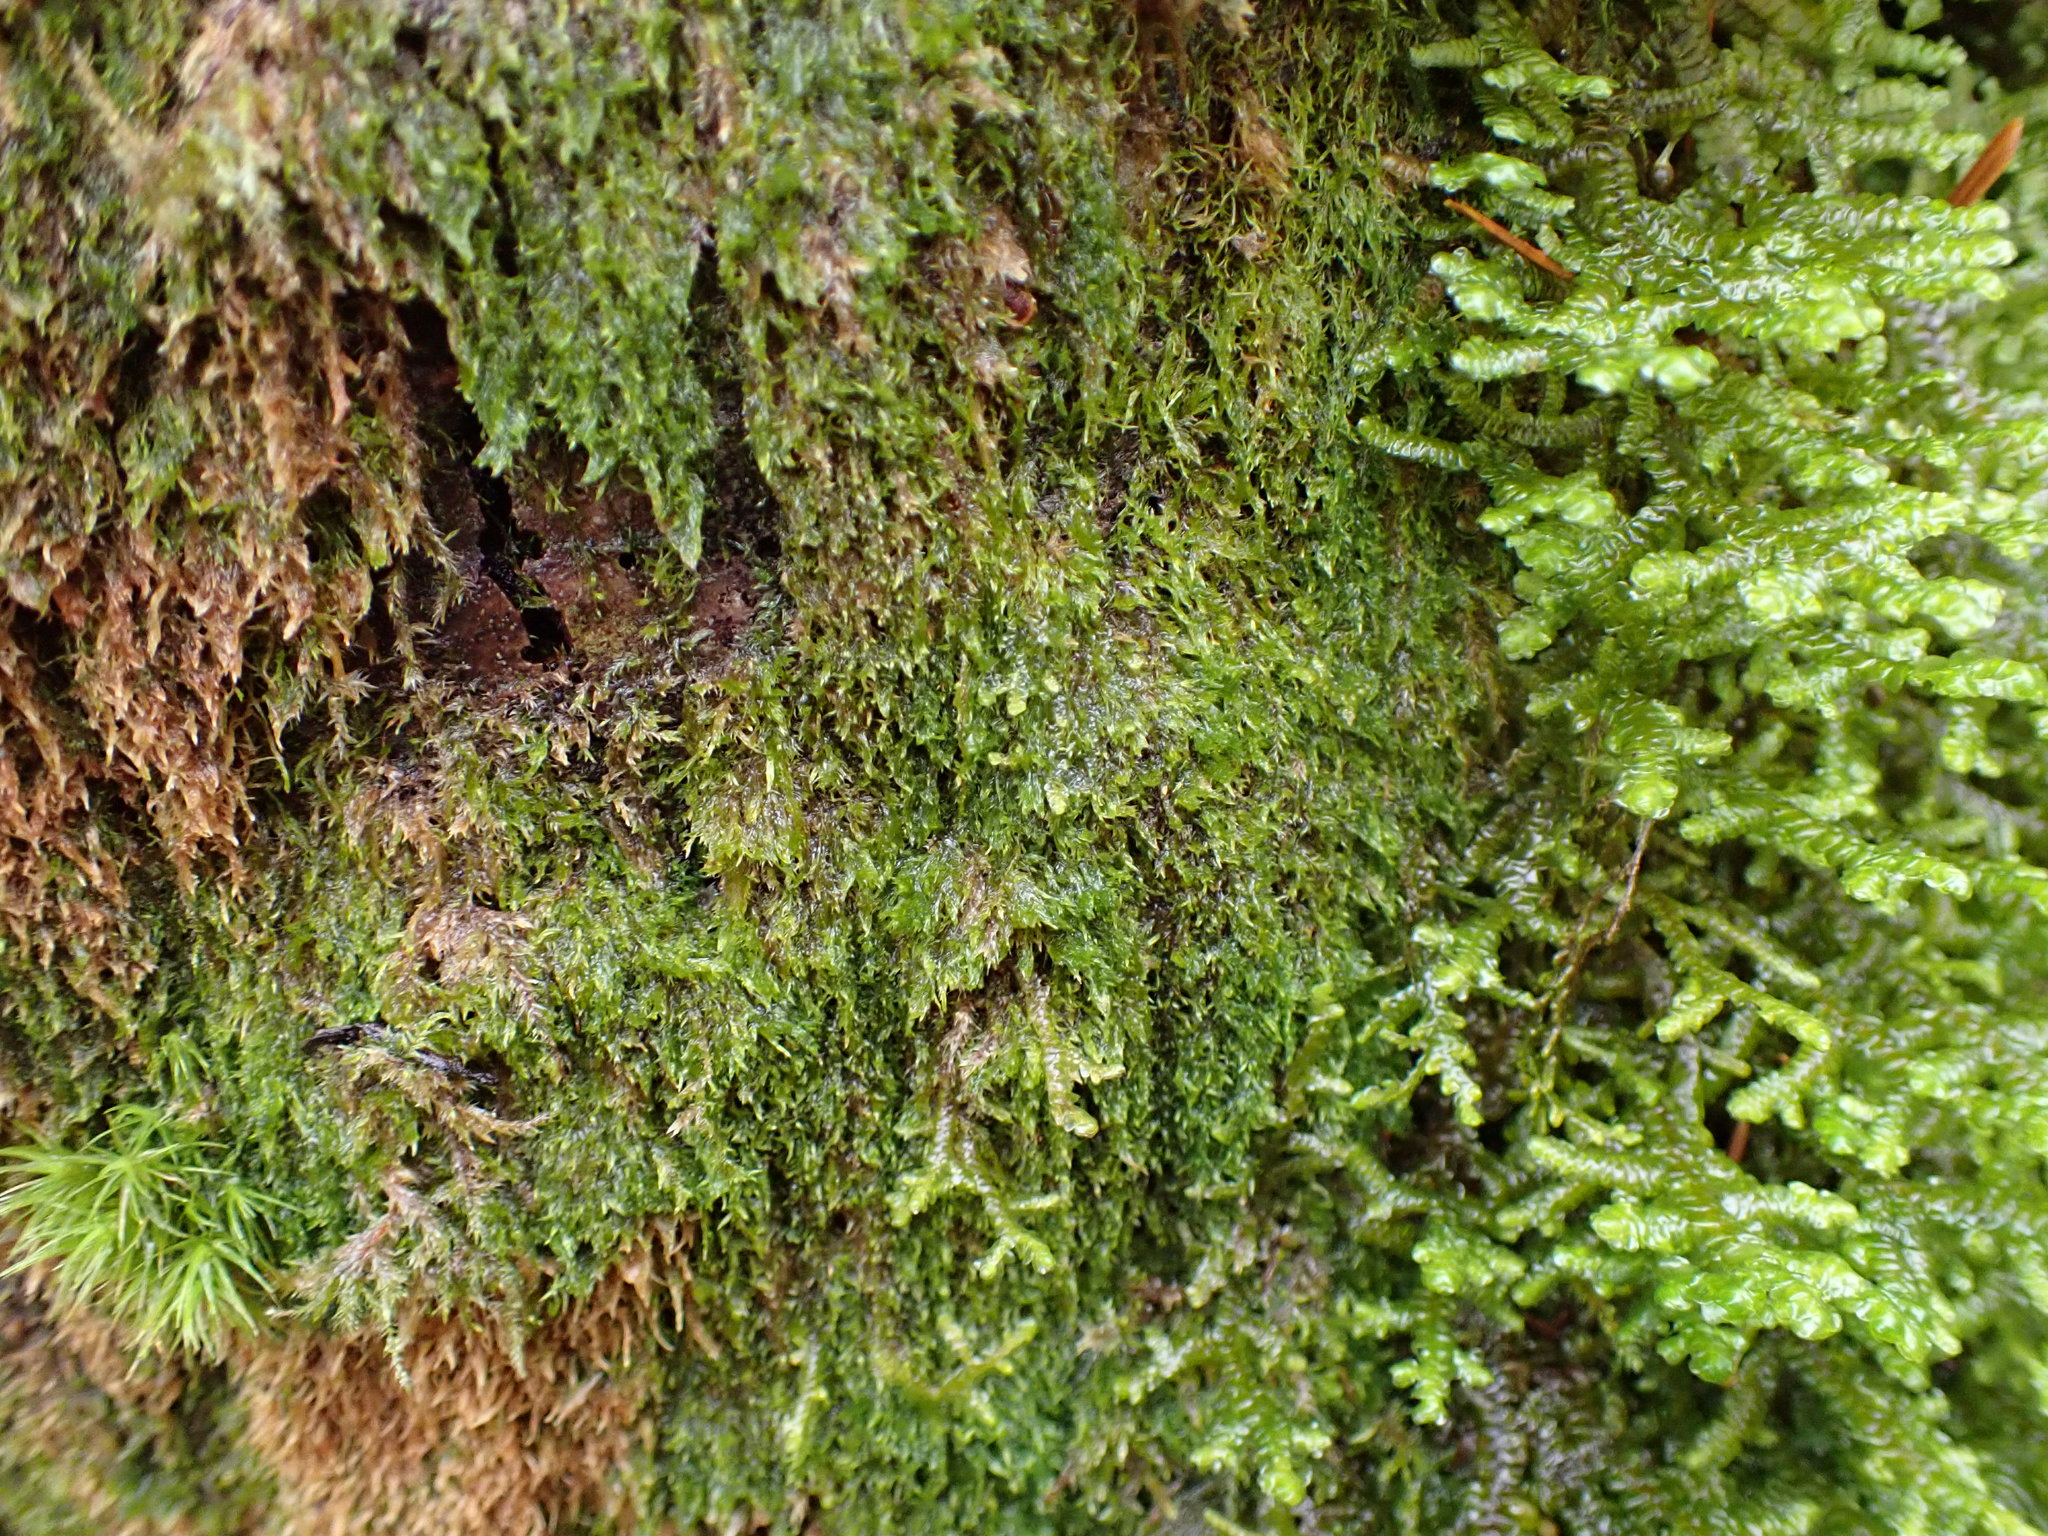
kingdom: Plantae
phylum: Bryophyta
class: Bryopsida
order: Hypnales
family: Pylaisiadelphaceae
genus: Brotherella
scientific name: Brotherella fauriei
